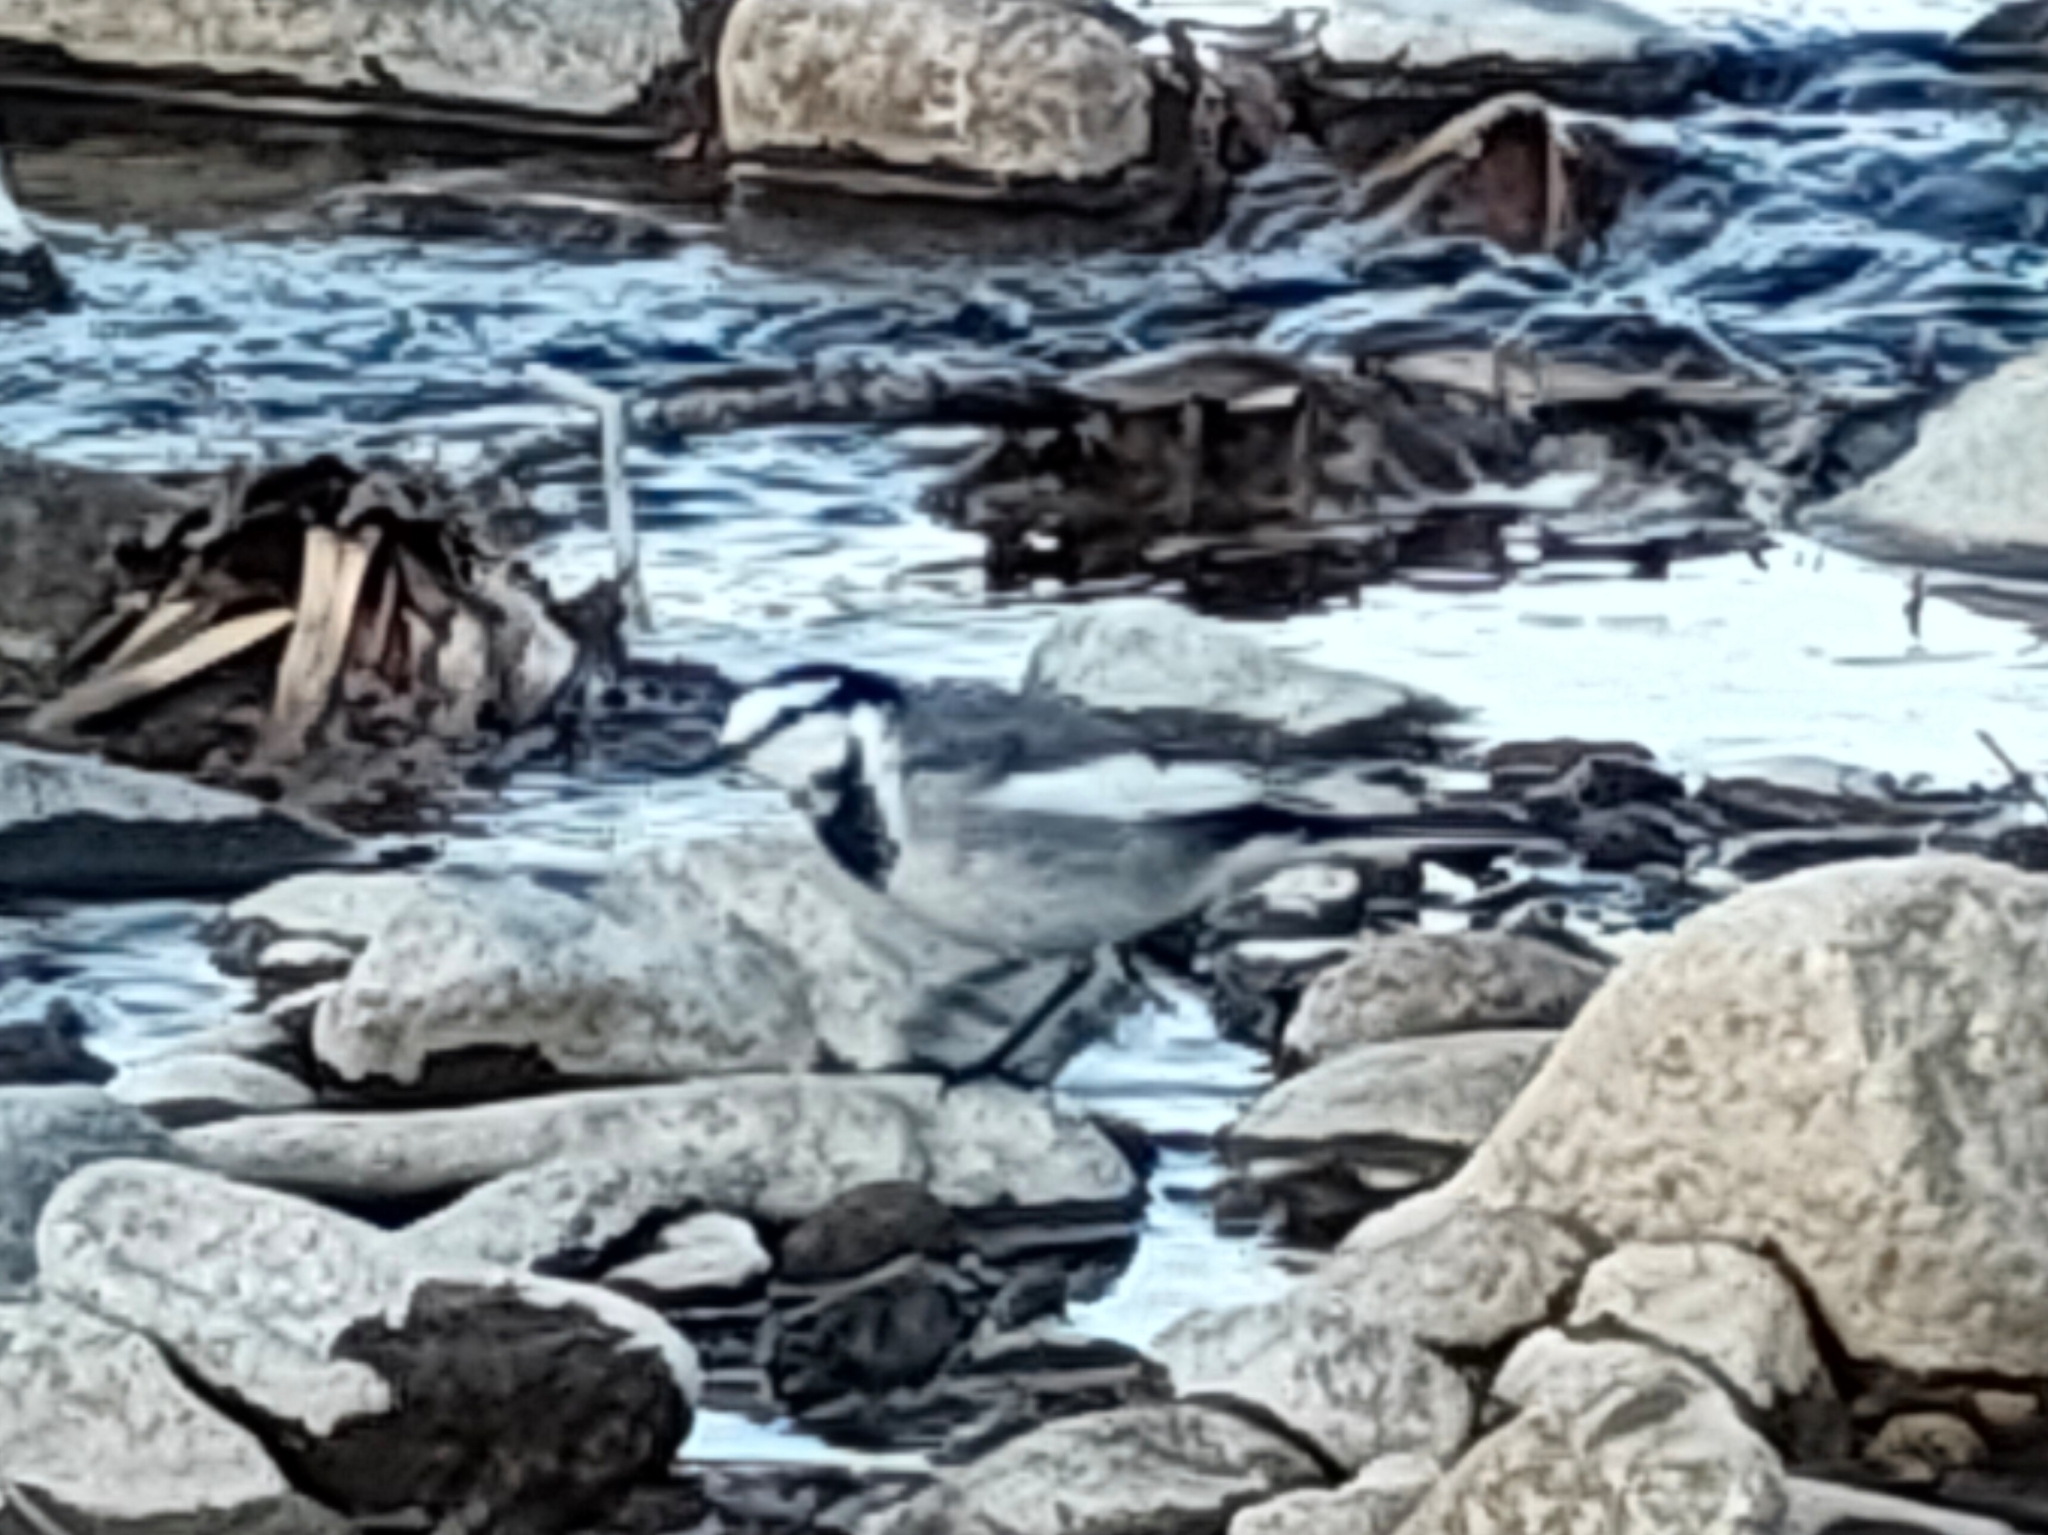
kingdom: Animalia
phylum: Chordata
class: Aves
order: Passeriformes
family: Motacillidae
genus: Motacilla
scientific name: Motacilla alba
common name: White wagtail
